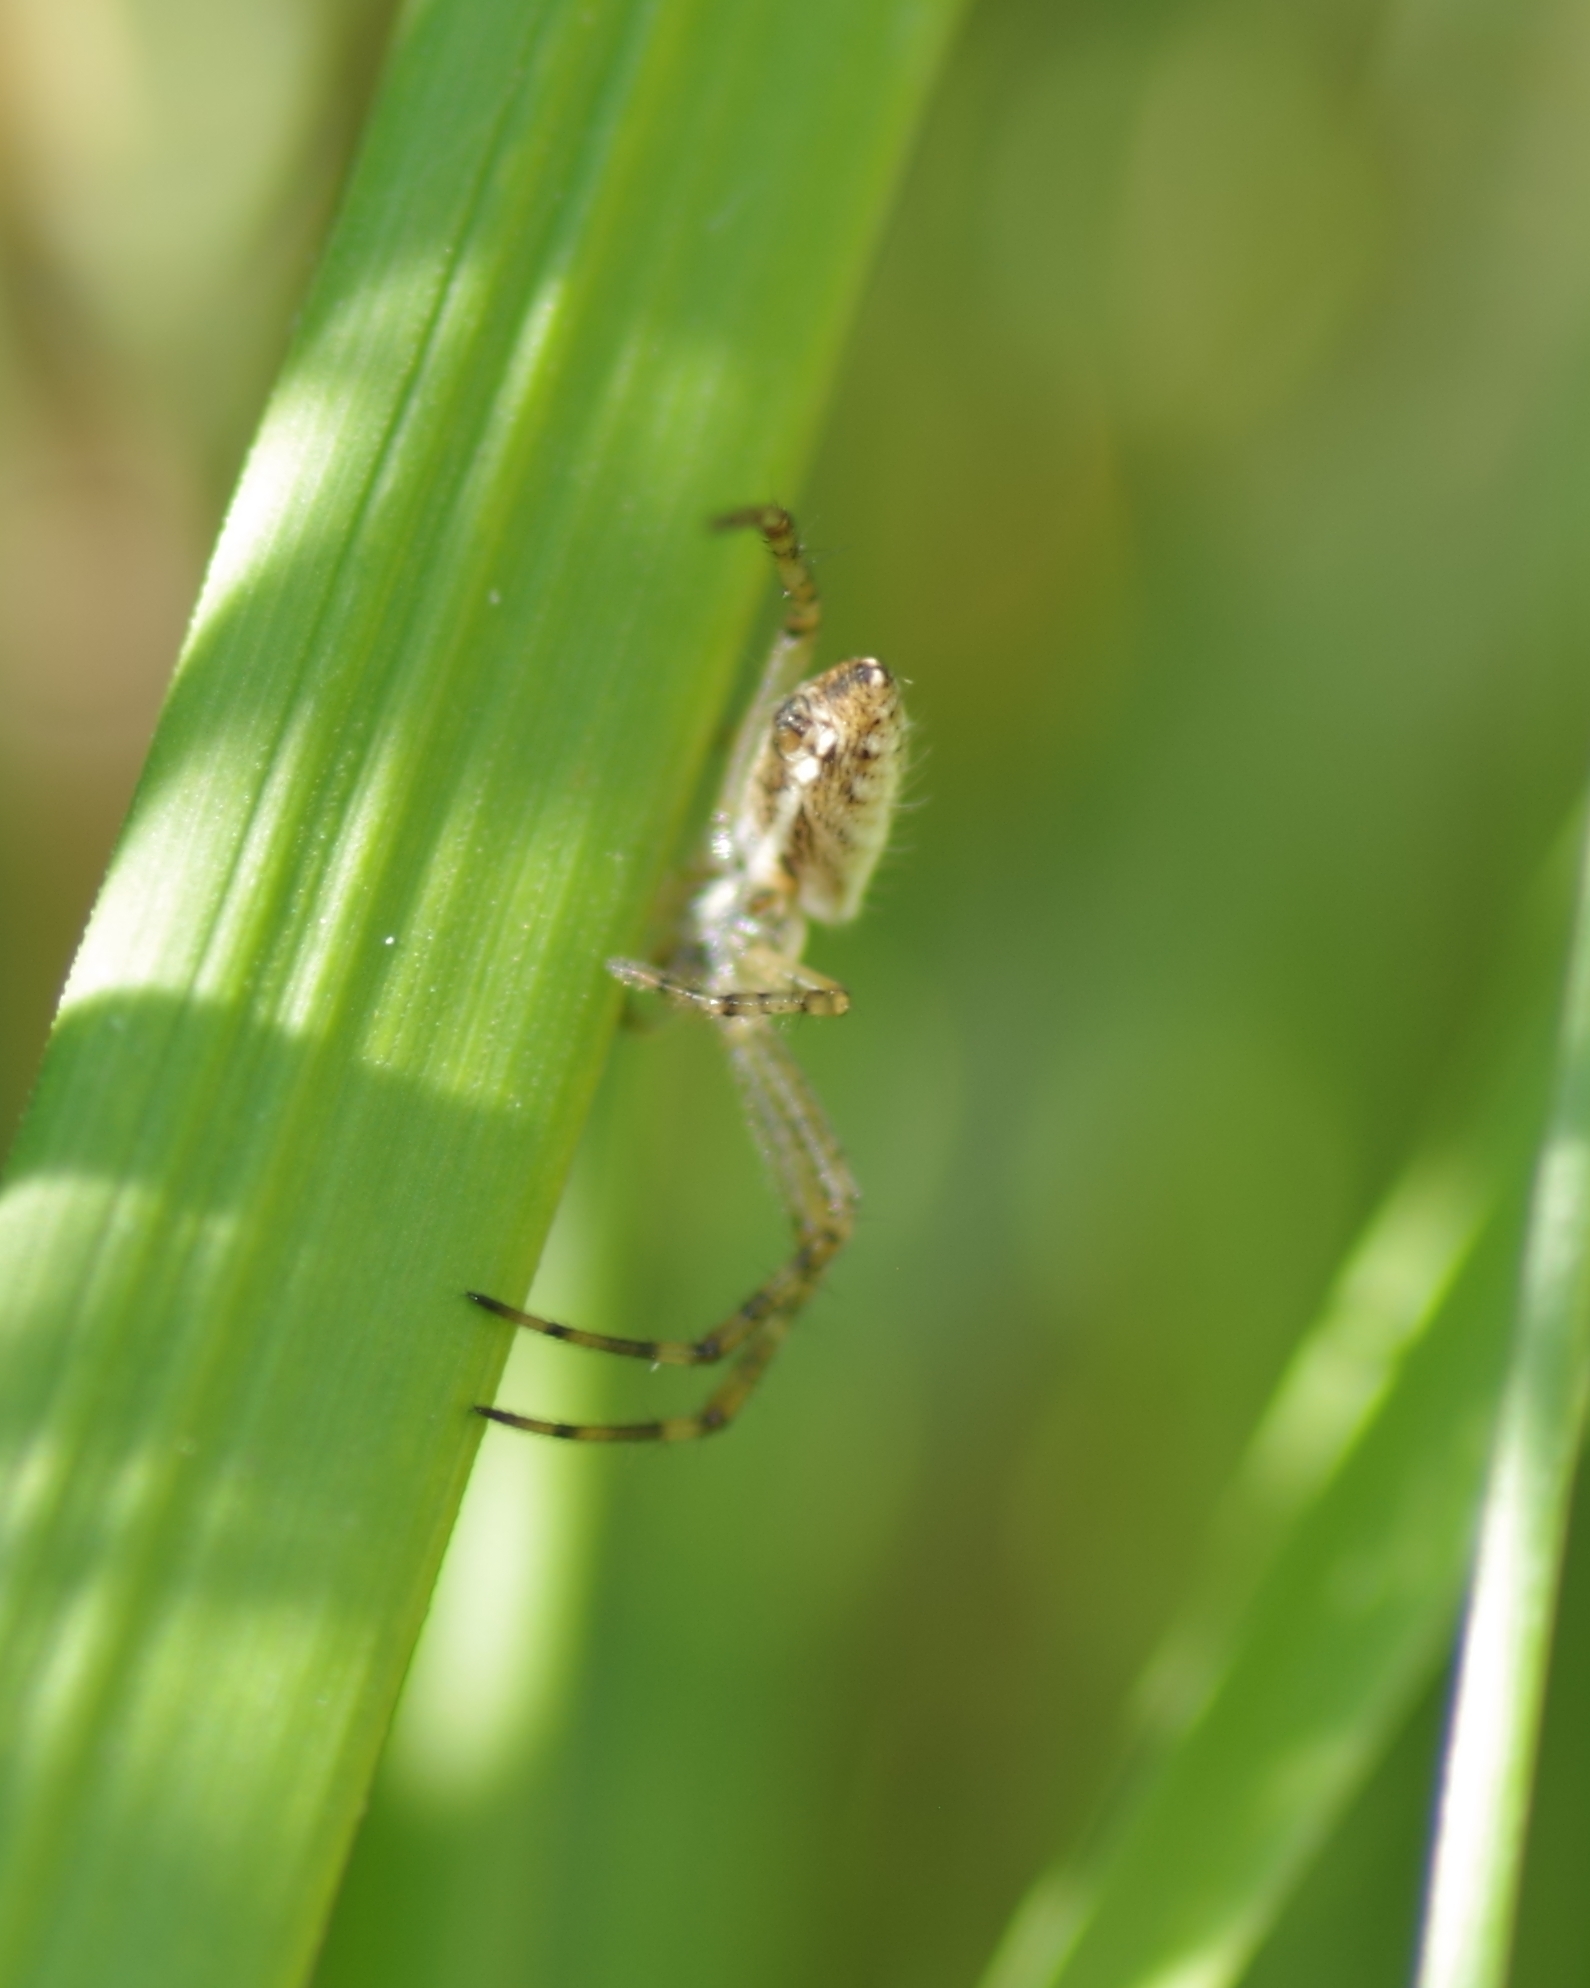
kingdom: Animalia
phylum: Arthropoda
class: Arachnida
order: Araneae
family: Araneidae
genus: Argiope
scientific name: Argiope bruennichi
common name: Wasp spider
